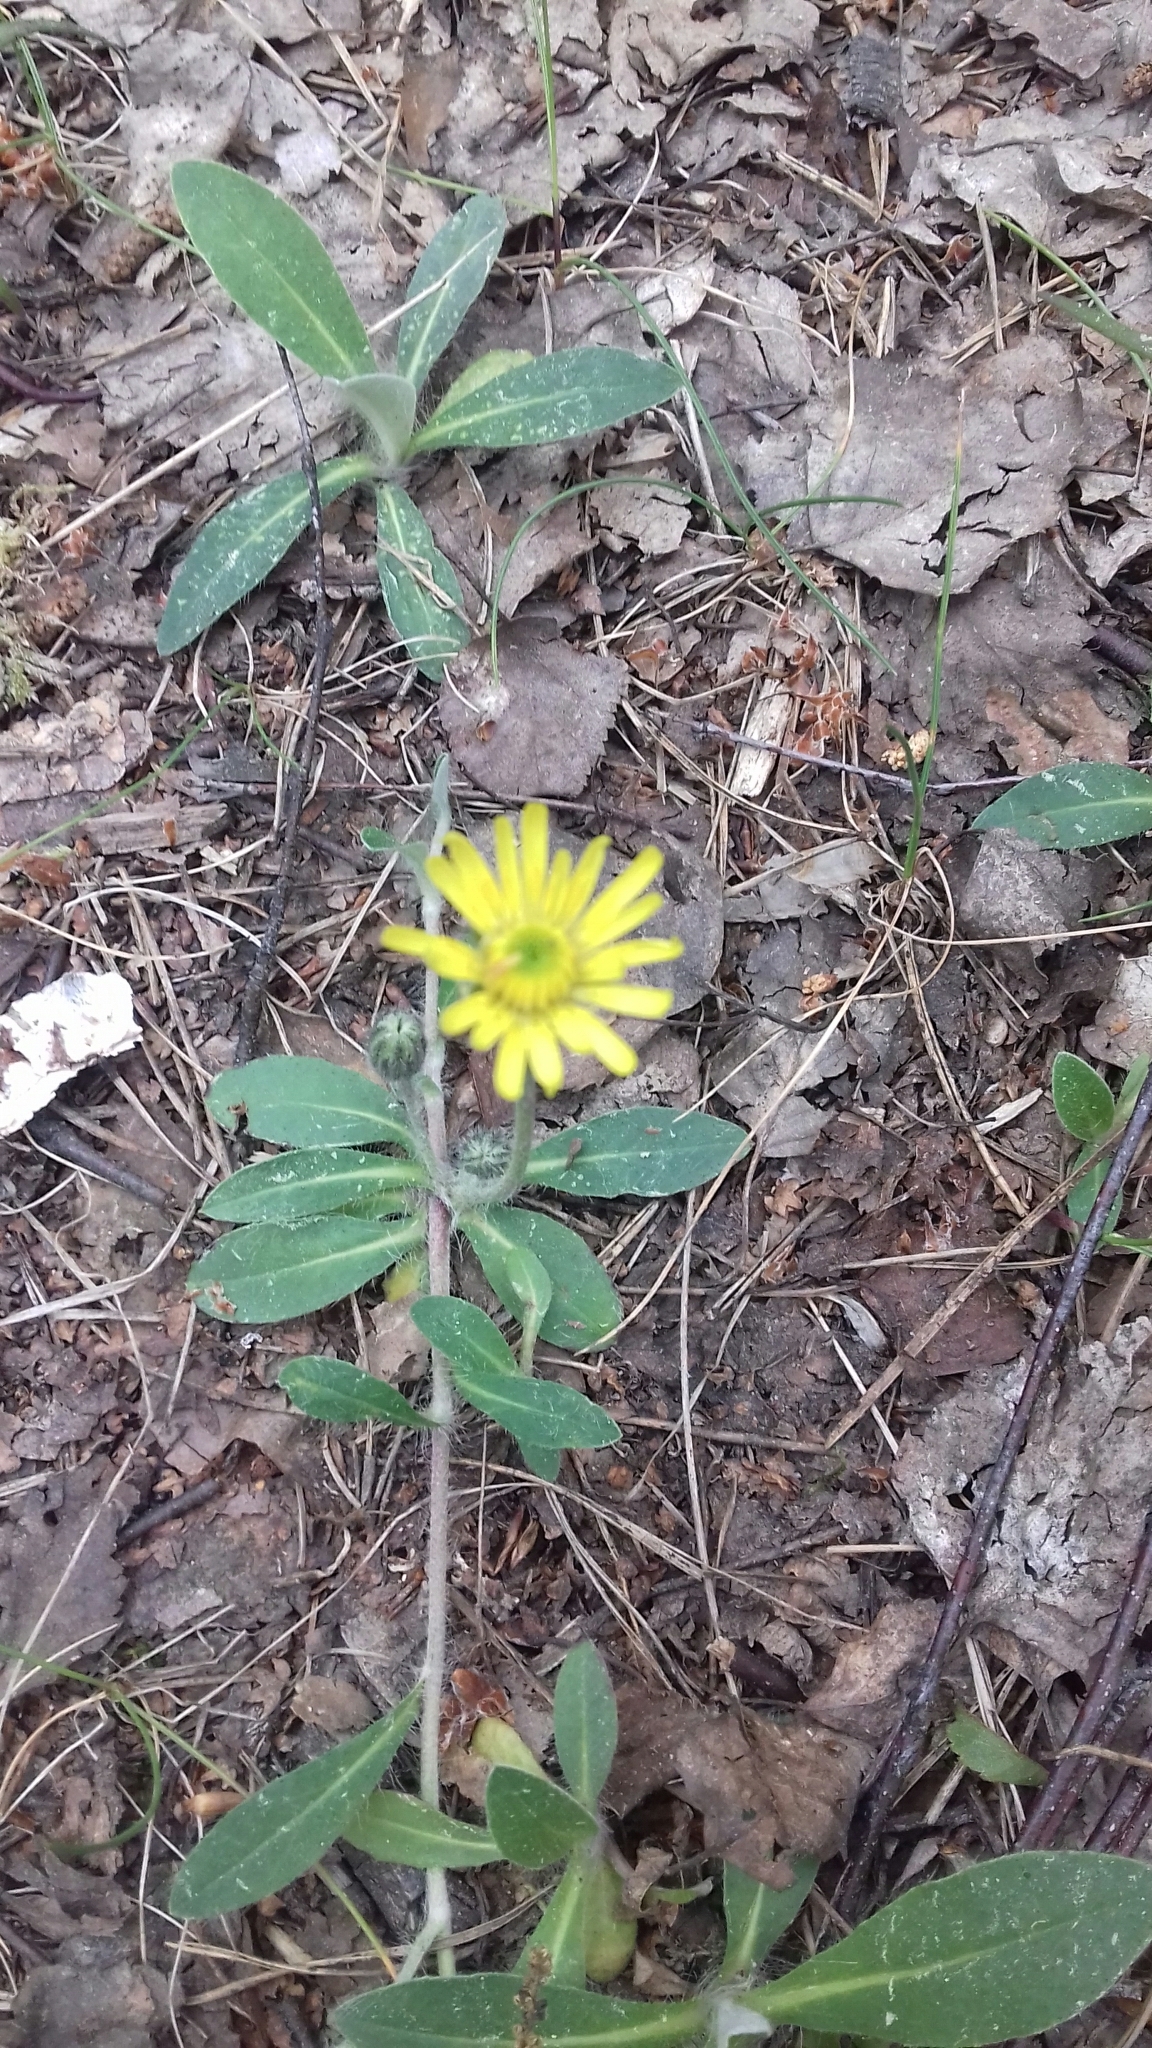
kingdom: Plantae
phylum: Tracheophyta
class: Magnoliopsida
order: Asterales
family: Asteraceae
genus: Pilosella
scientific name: Pilosella officinarum
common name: Mouse-ear hawkweed
